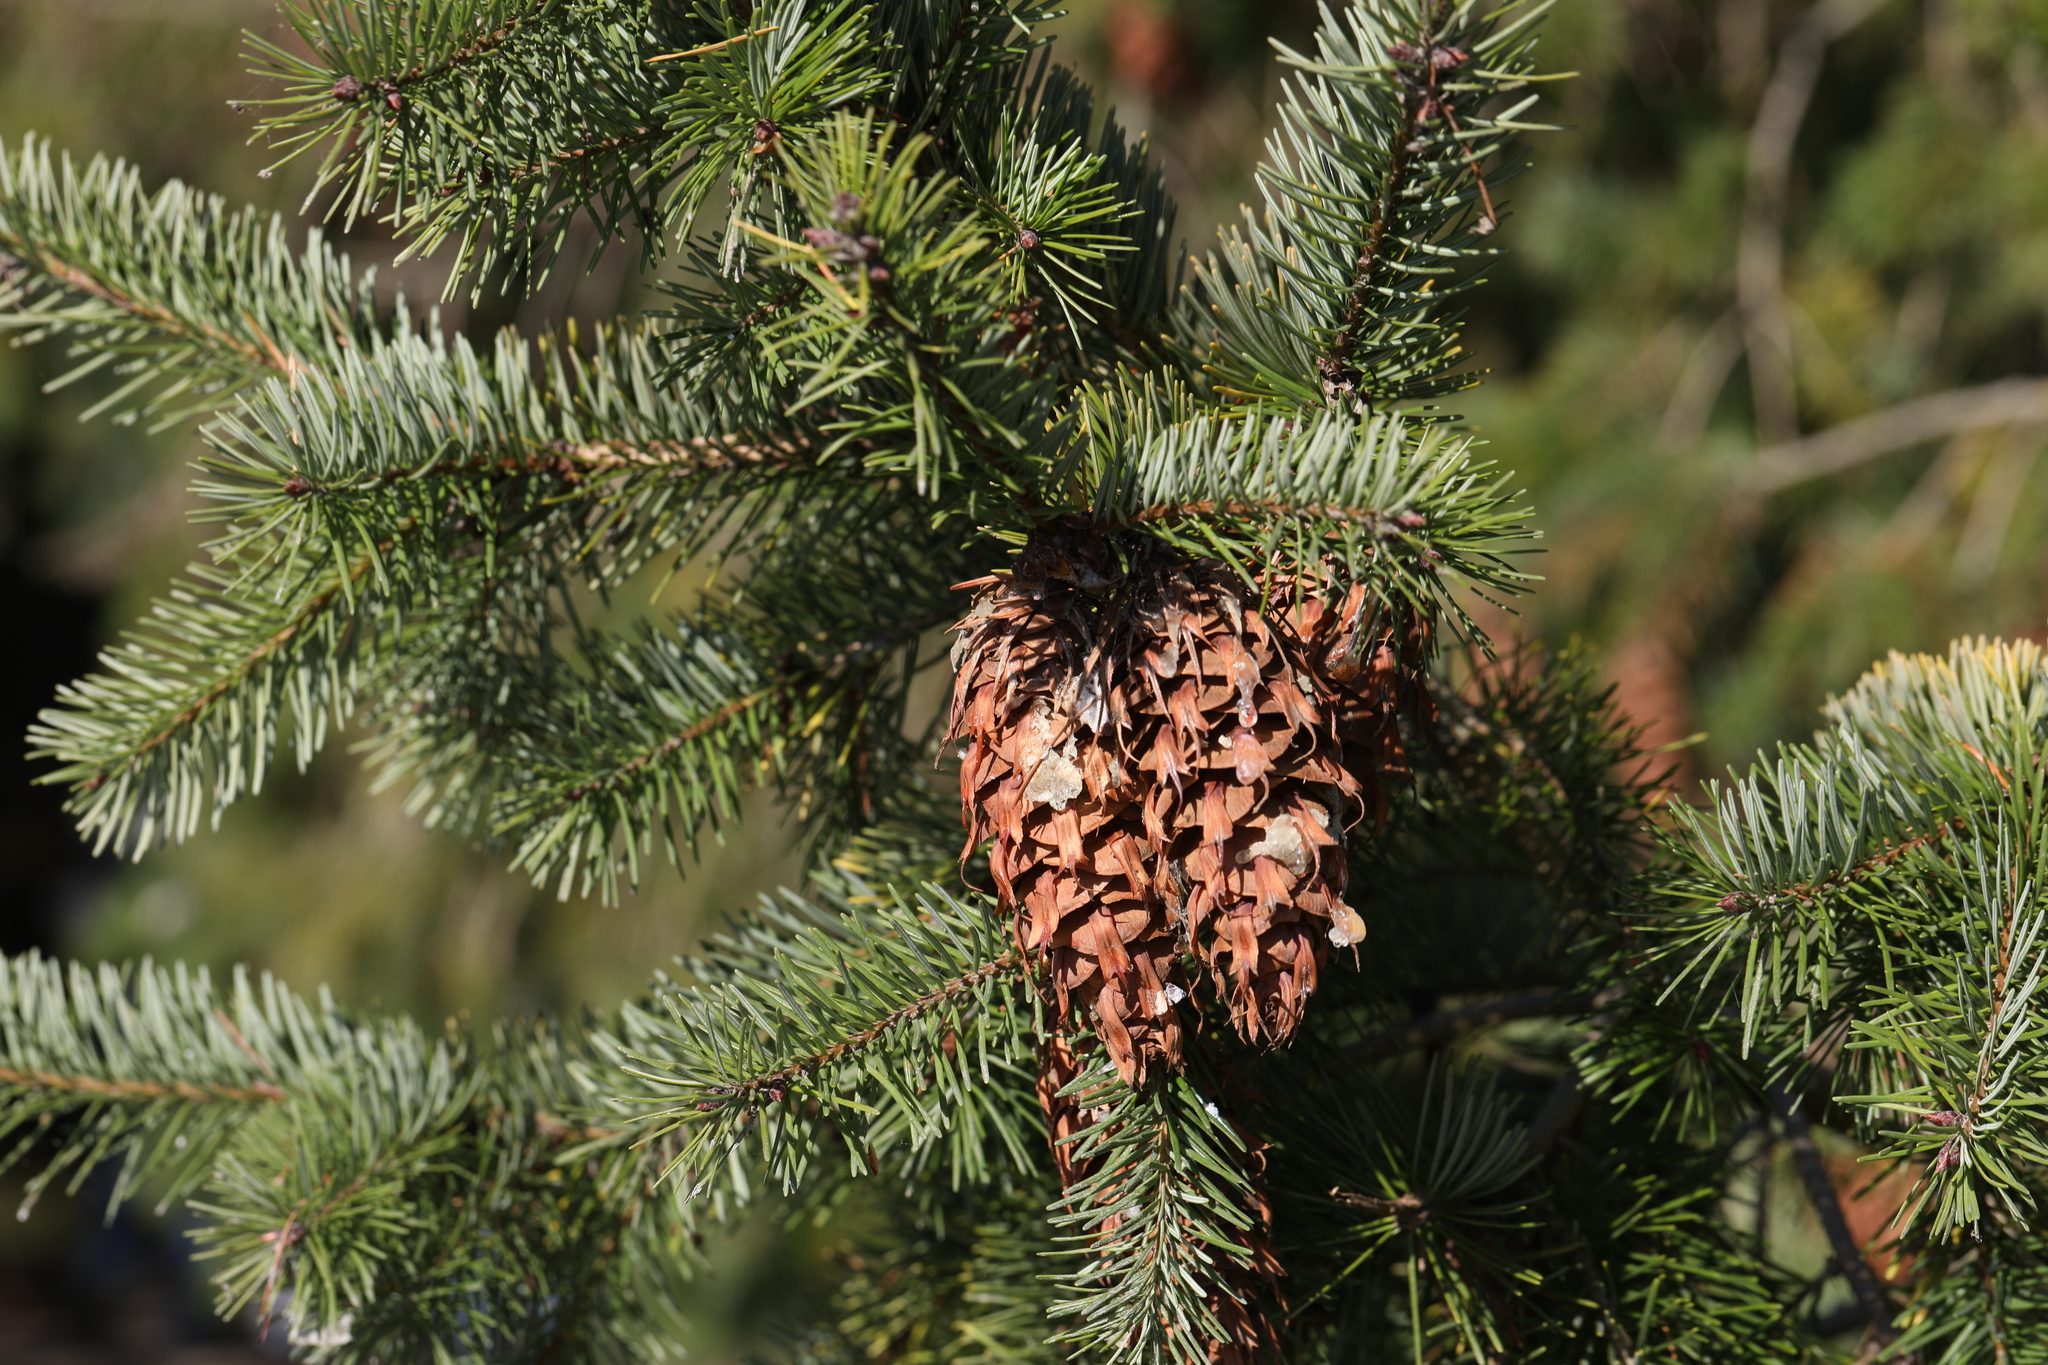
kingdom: Plantae
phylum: Tracheophyta
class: Pinopsida
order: Pinales
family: Pinaceae
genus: Pseudotsuga
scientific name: Pseudotsuga menziesii
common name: Douglas fir
